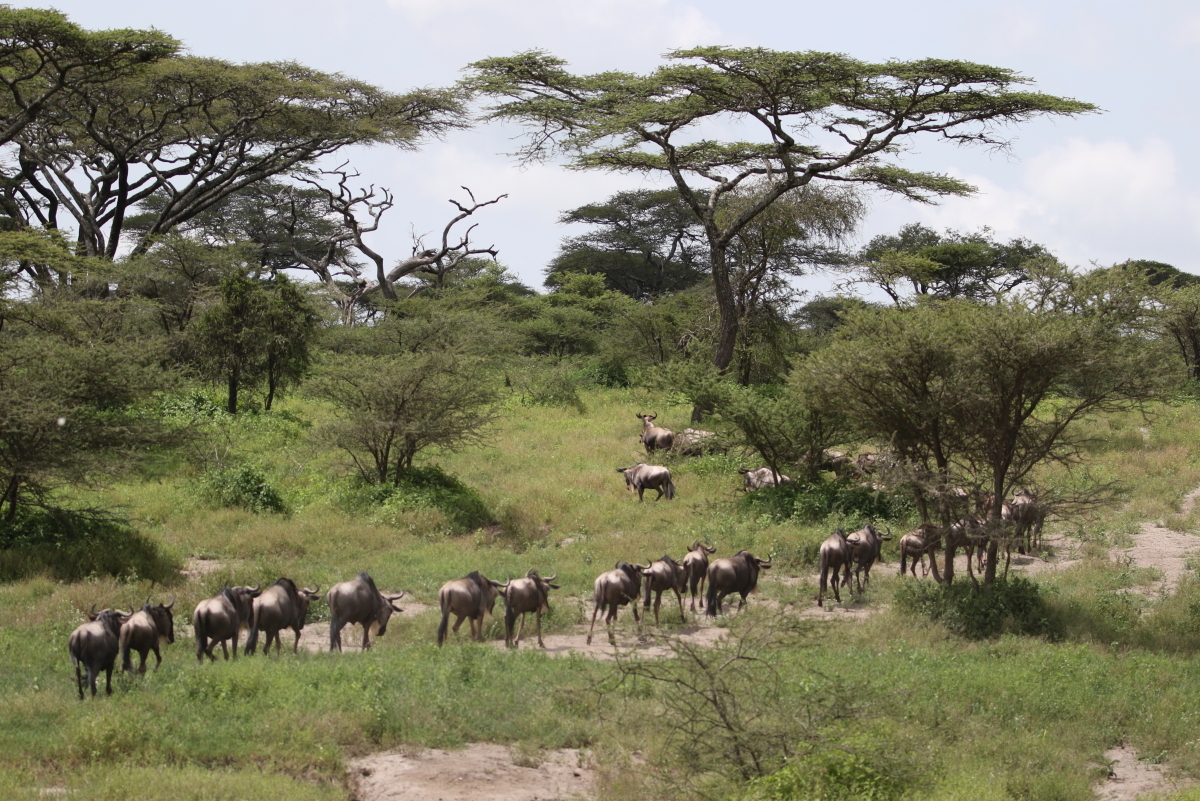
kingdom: Animalia
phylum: Chordata
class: Mammalia
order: Artiodactyla
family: Bovidae
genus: Connochaetes
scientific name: Connochaetes taurinus
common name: Blue wildebeest
